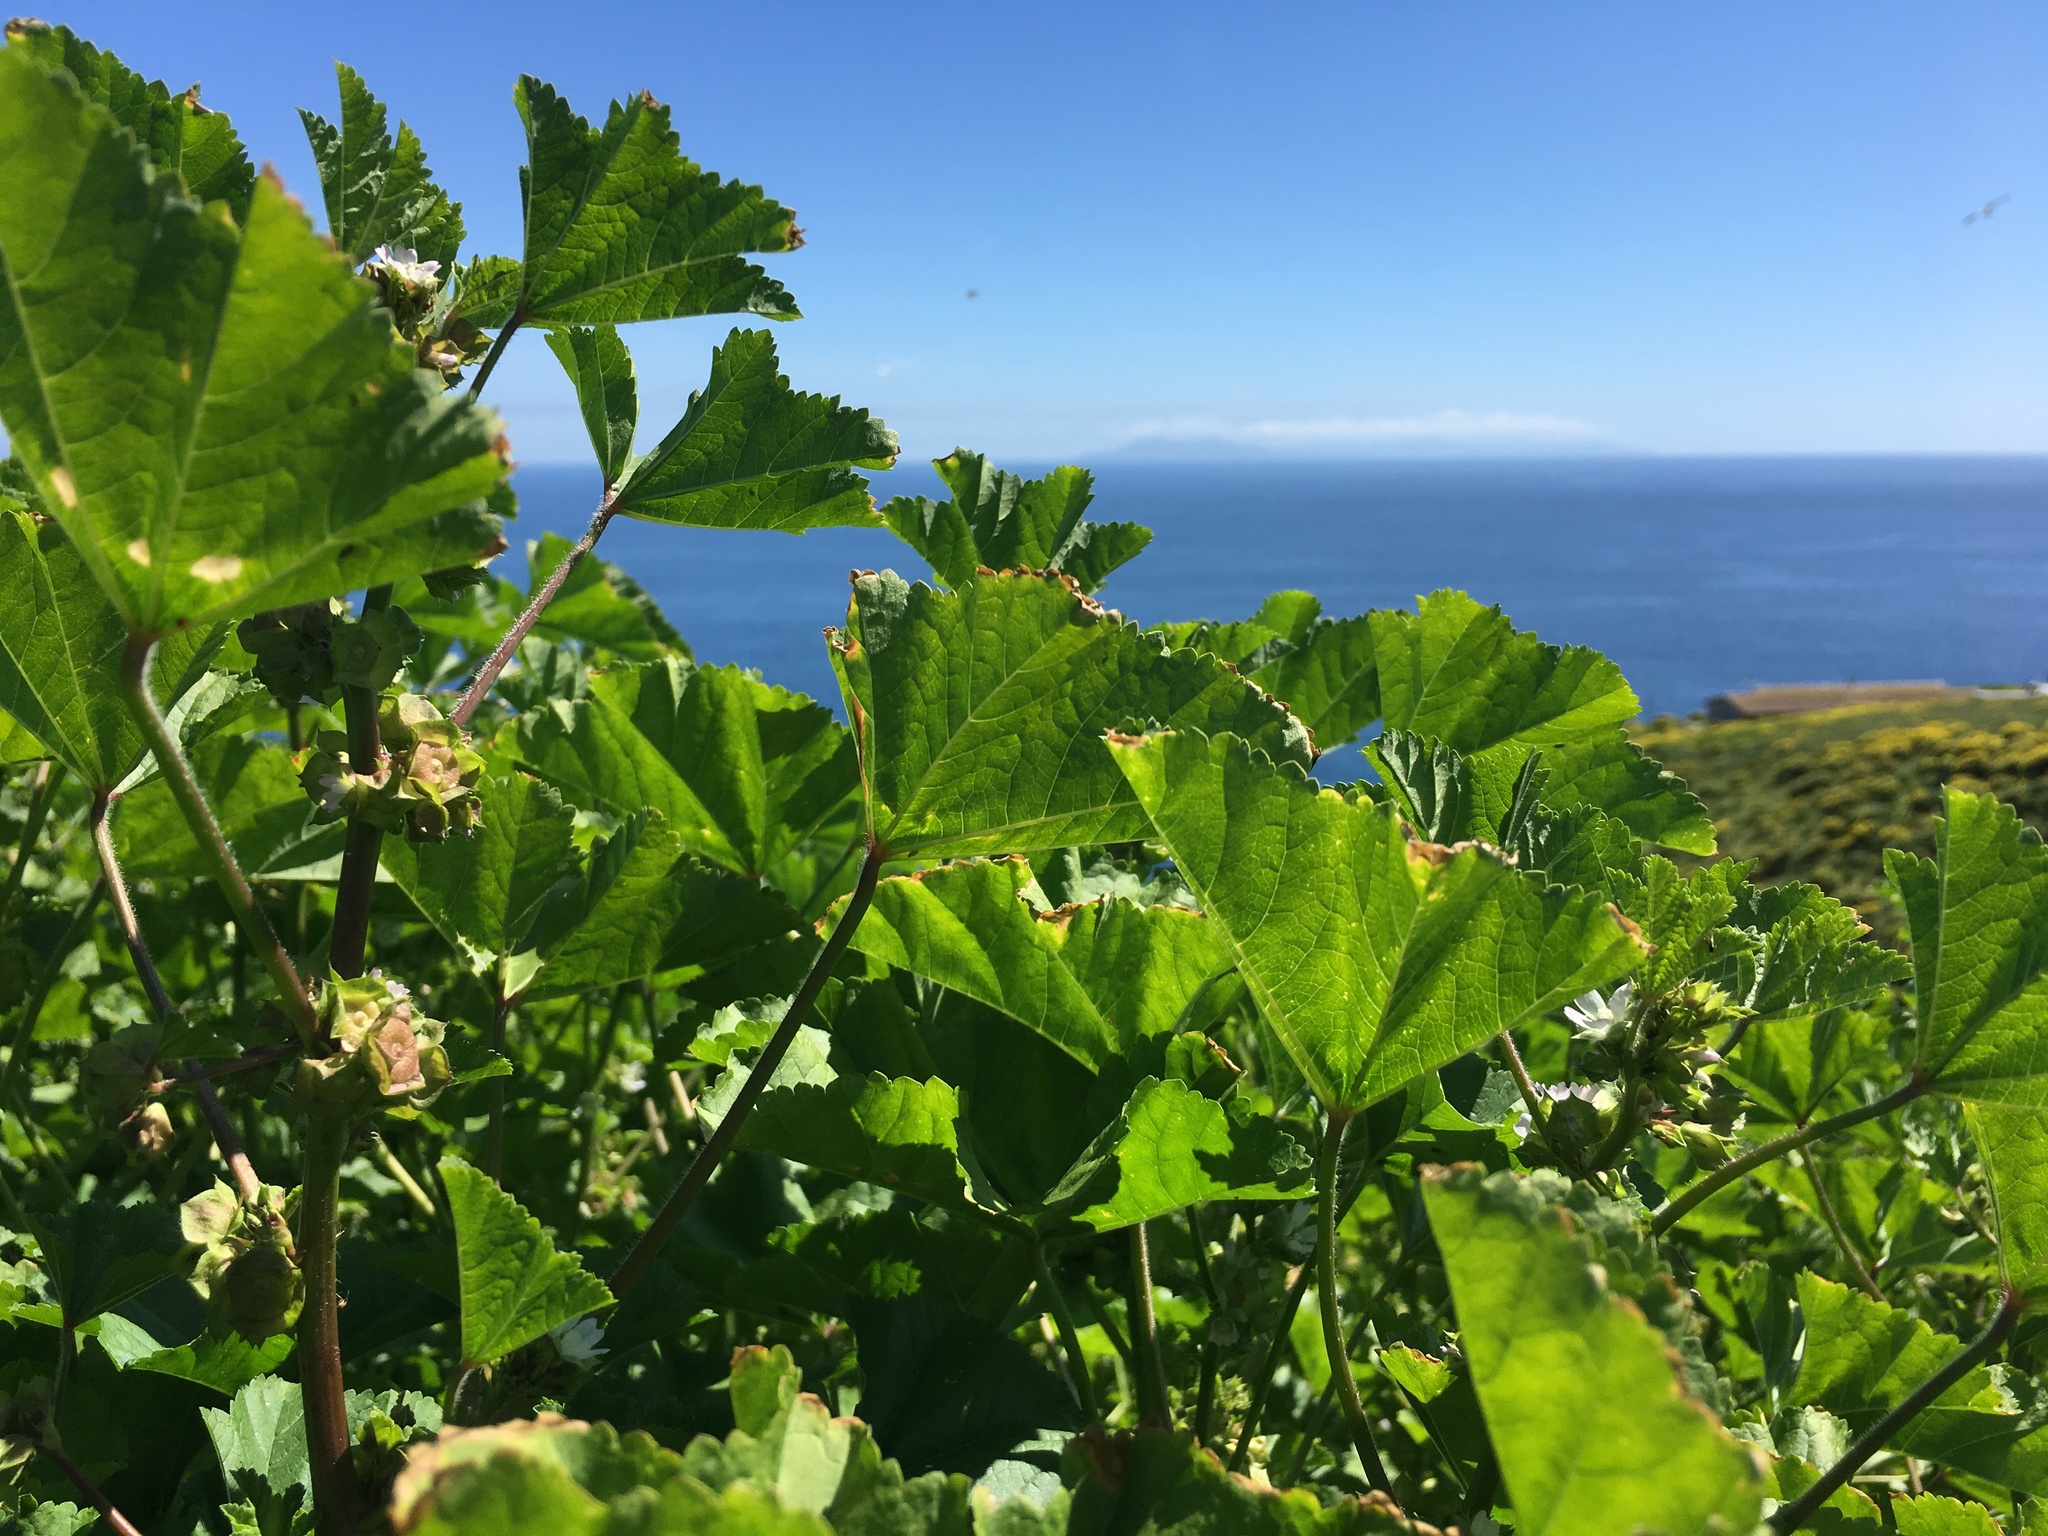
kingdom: Plantae
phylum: Tracheophyta
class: Magnoliopsida
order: Malvales
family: Malvaceae
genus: Malva
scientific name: Malva parviflora
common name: Least mallow
